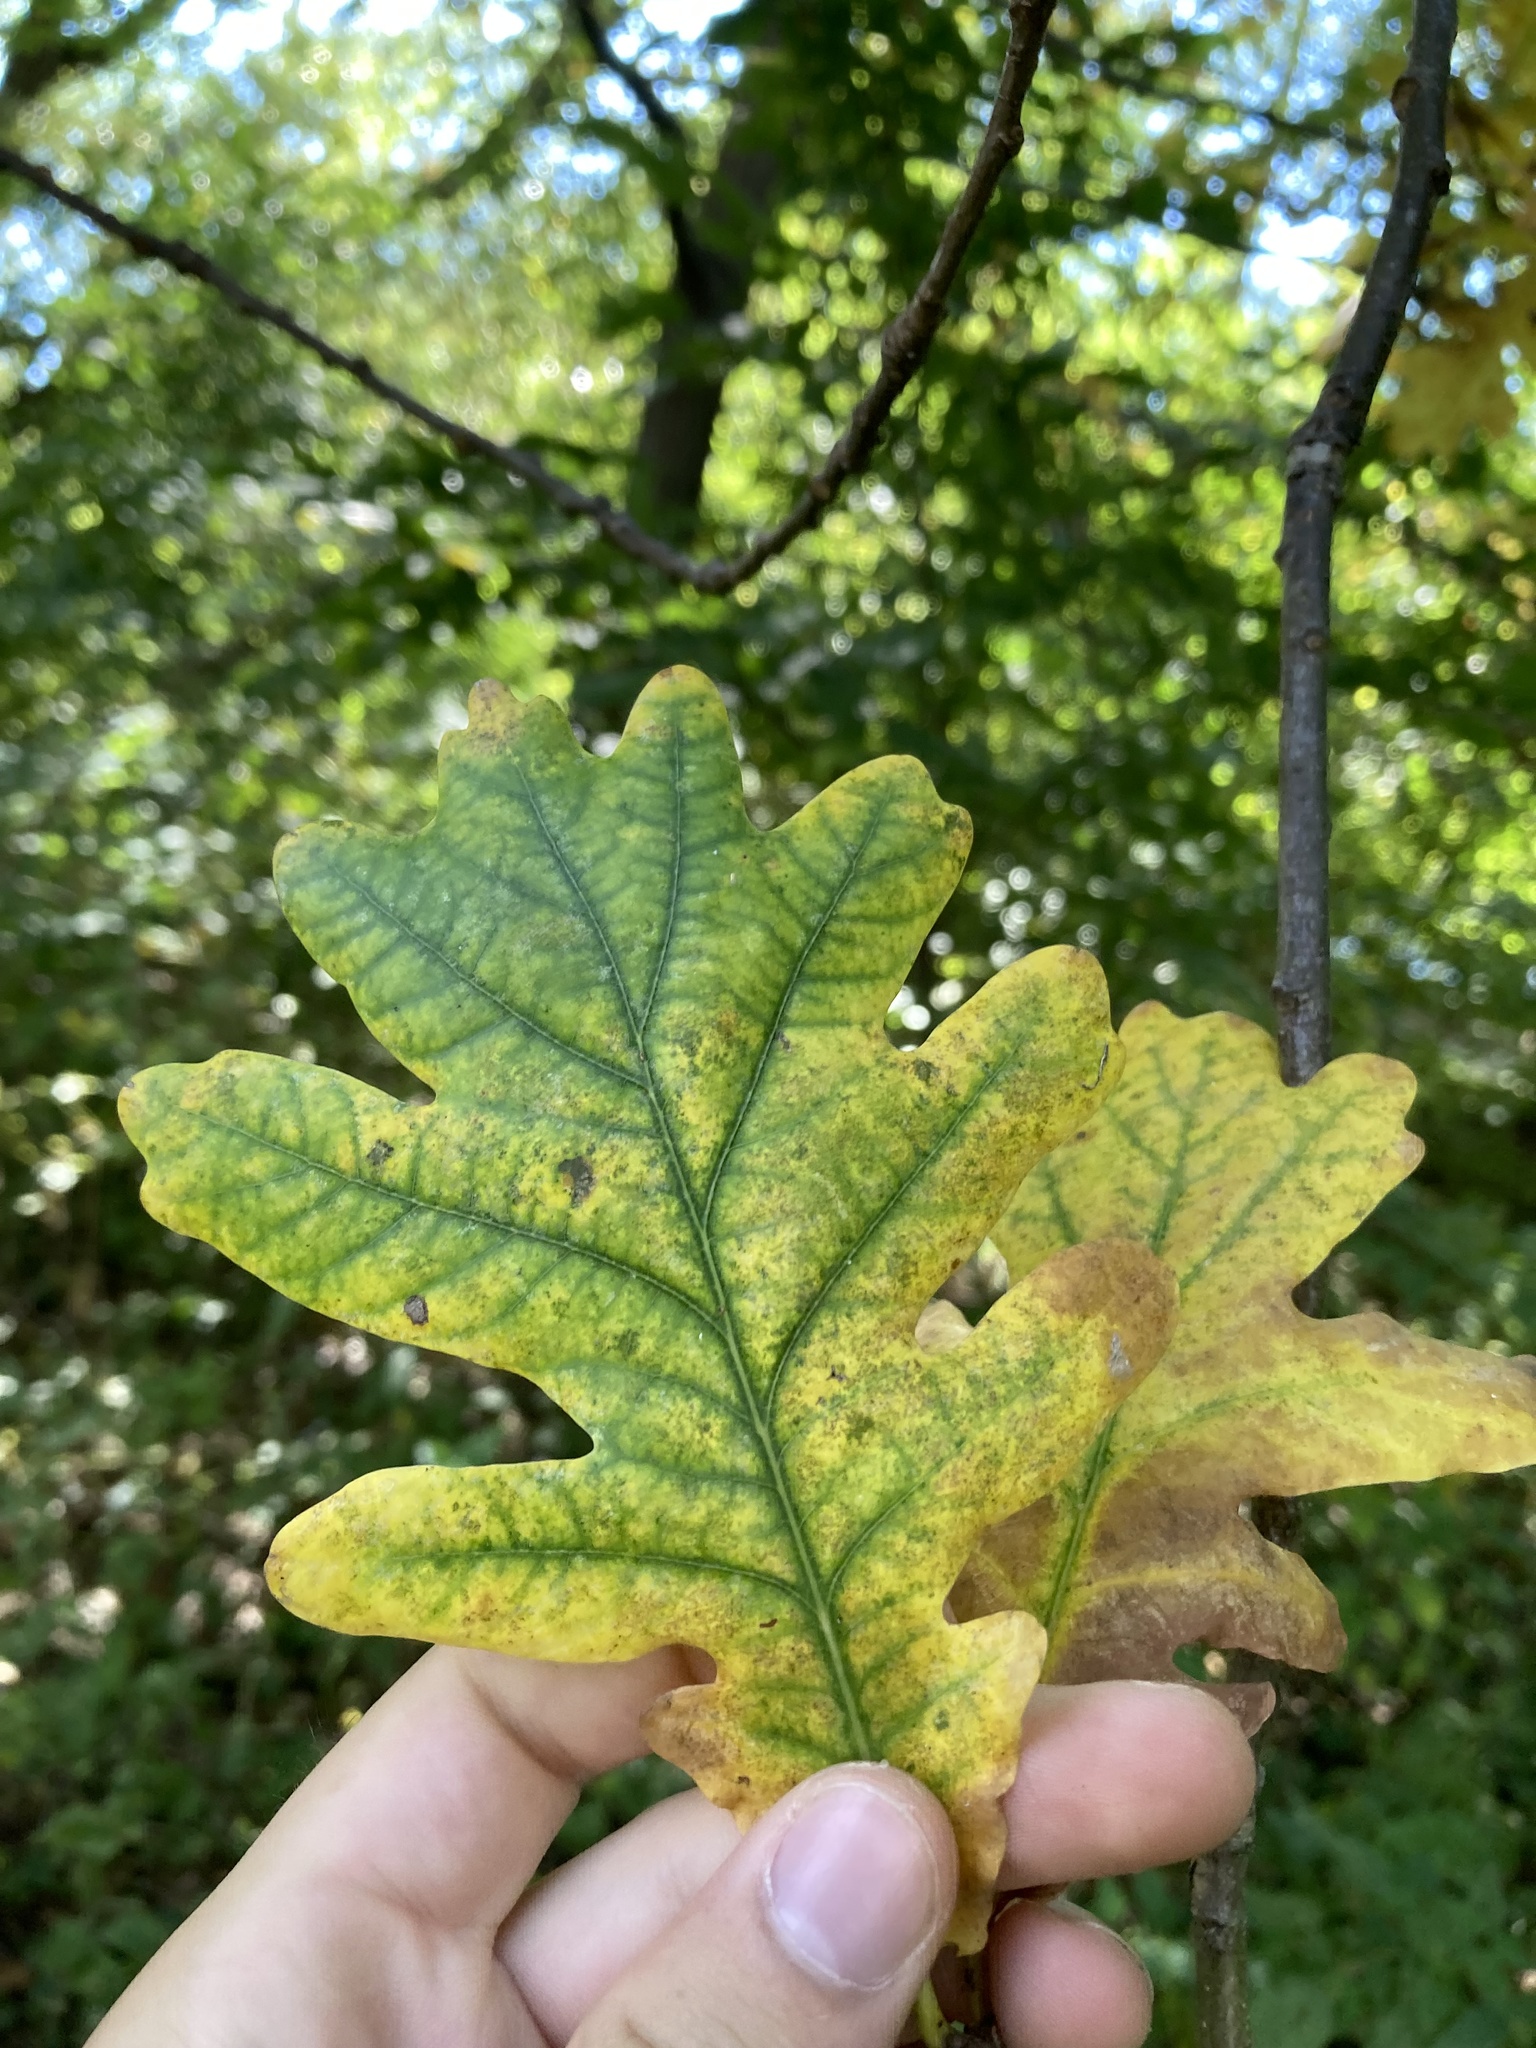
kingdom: Plantae
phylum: Tracheophyta
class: Magnoliopsida
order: Fagales
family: Fagaceae
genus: Quercus
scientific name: Quercus robur
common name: Pedunculate oak
